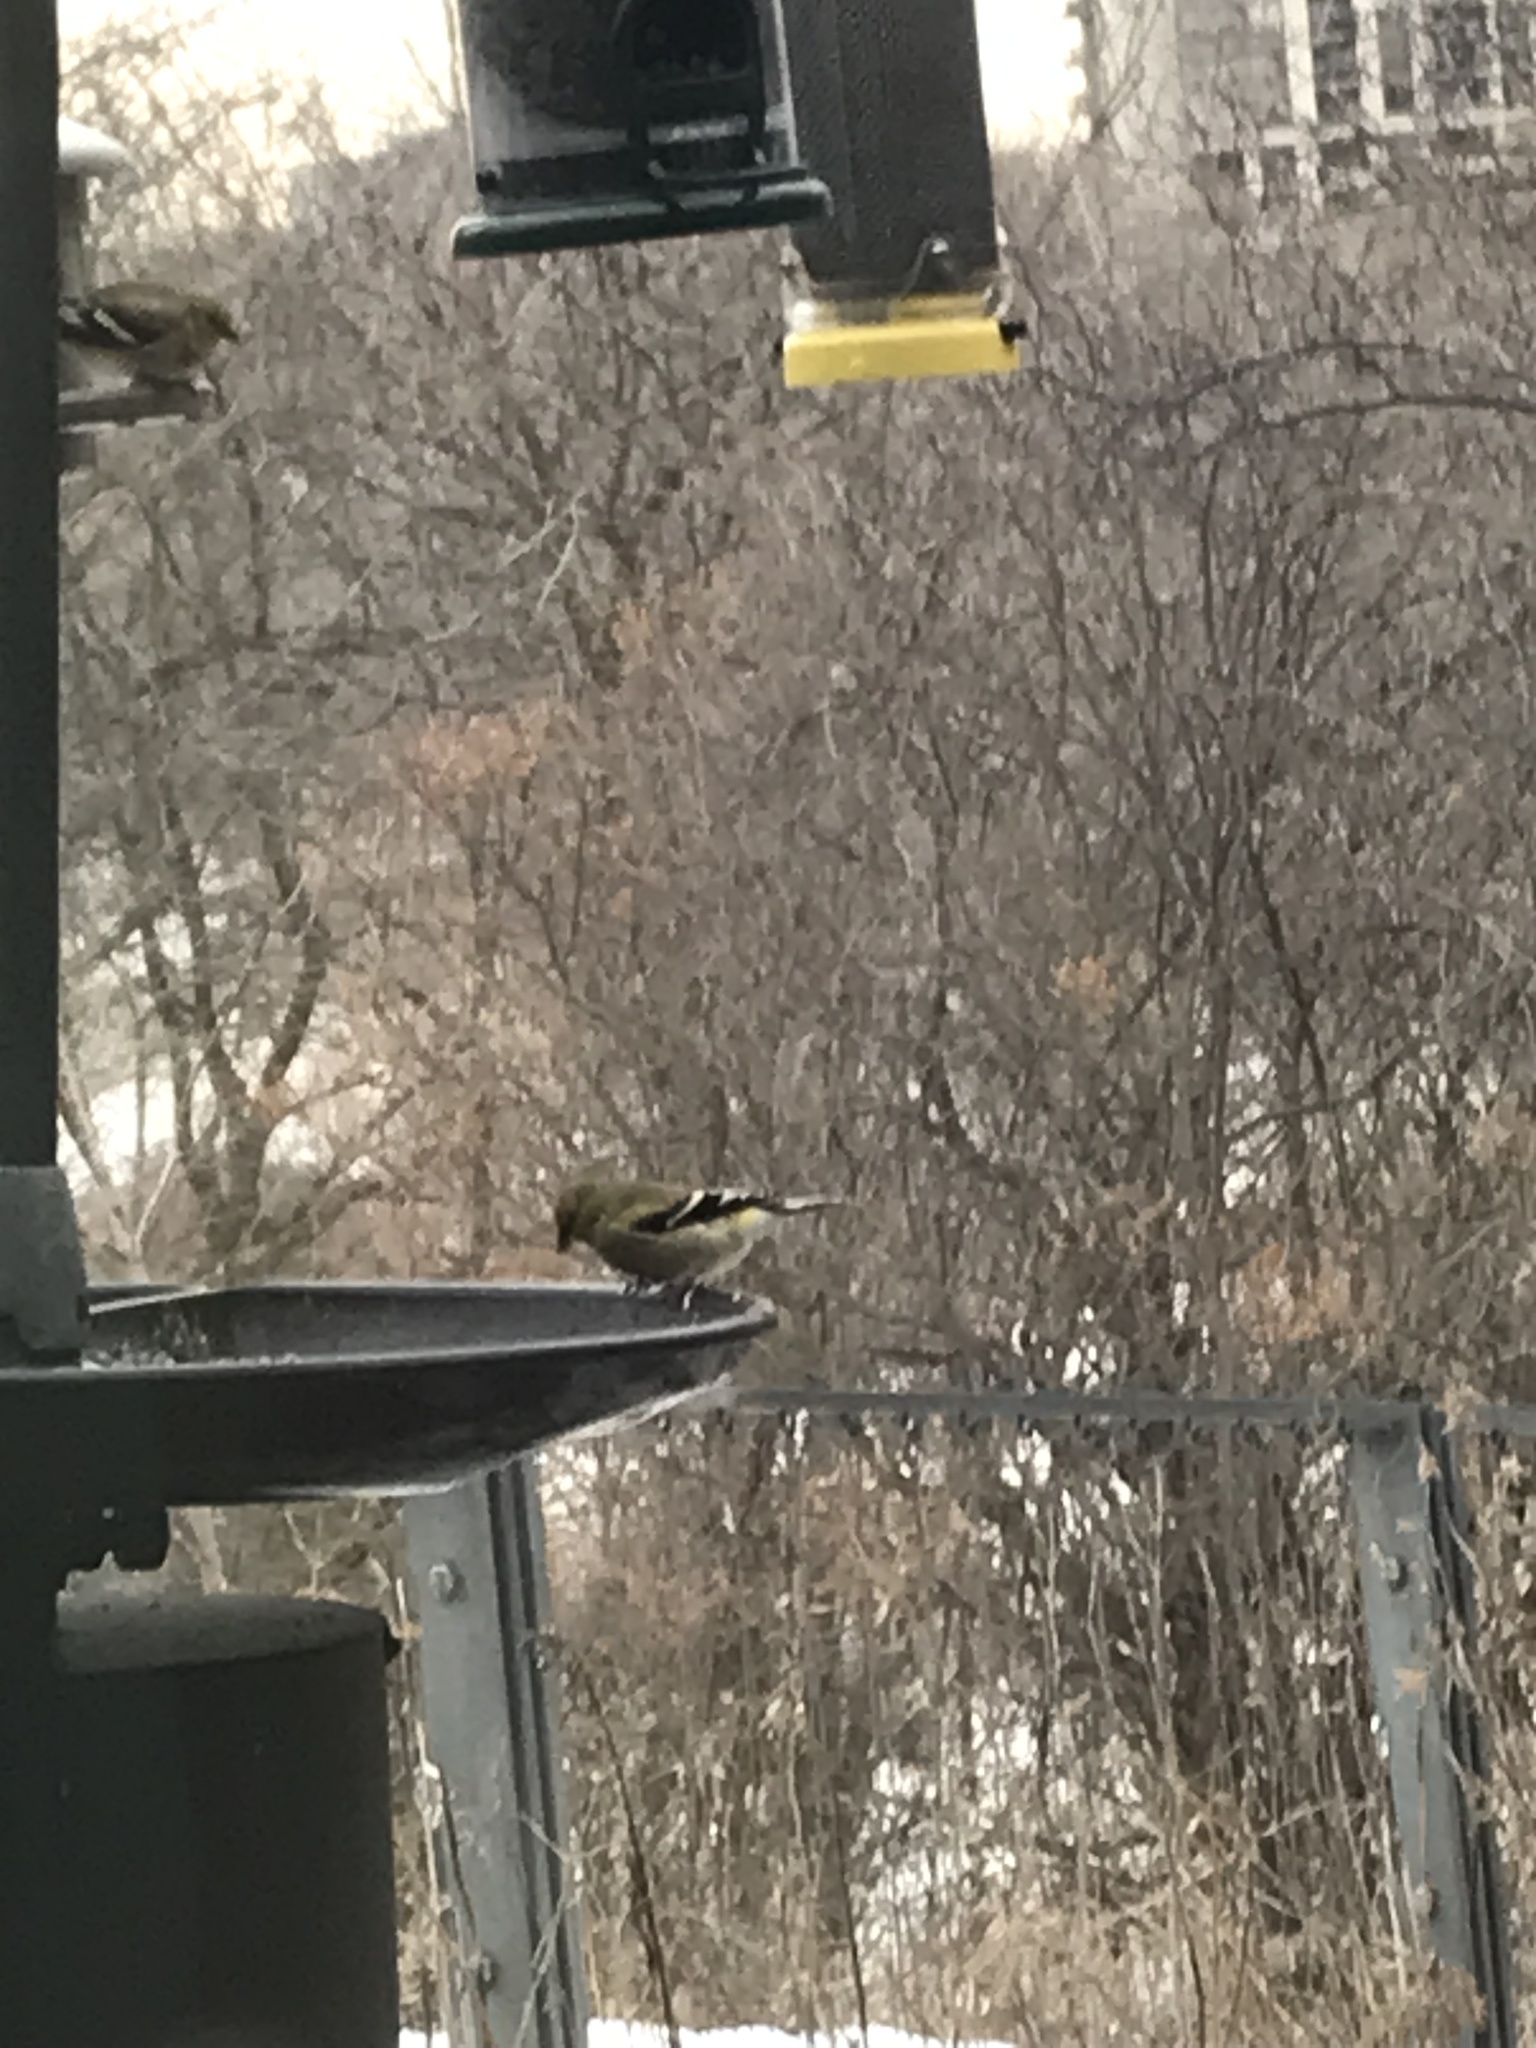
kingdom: Animalia
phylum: Chordata
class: Aves
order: Passeriformes
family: Fringillidae
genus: Spinus
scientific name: Spinus tristis
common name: American goldfinch
